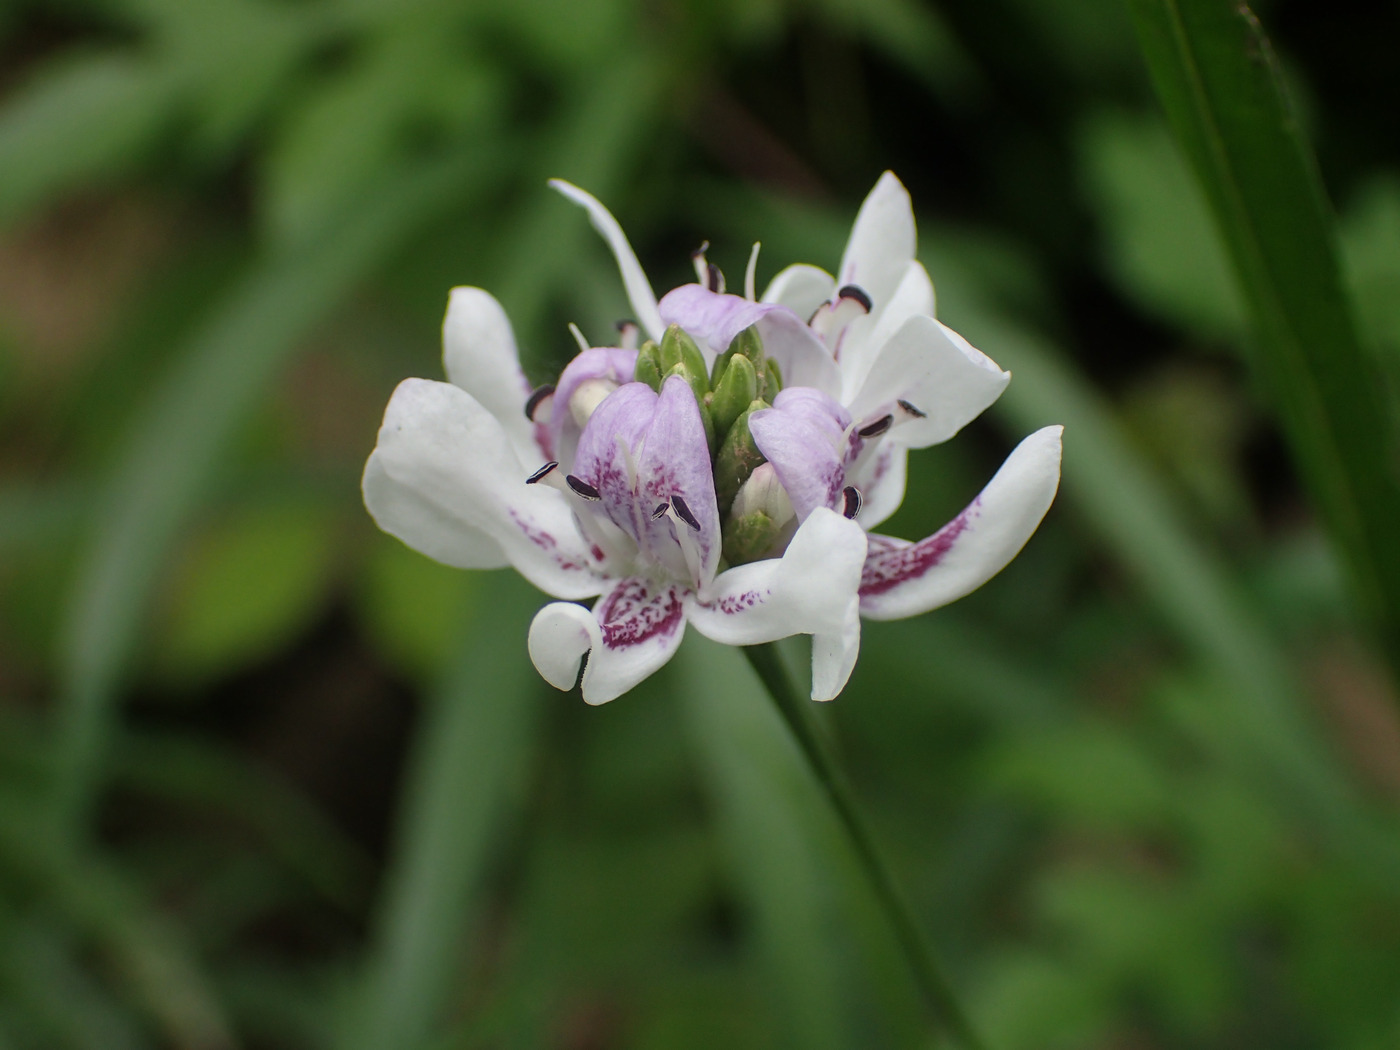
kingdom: Plantae
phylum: Tracheophyta
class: Magnoliopsida
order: Lamiales
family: Acanthaceae
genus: Dianthera
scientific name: Dianthera americana
